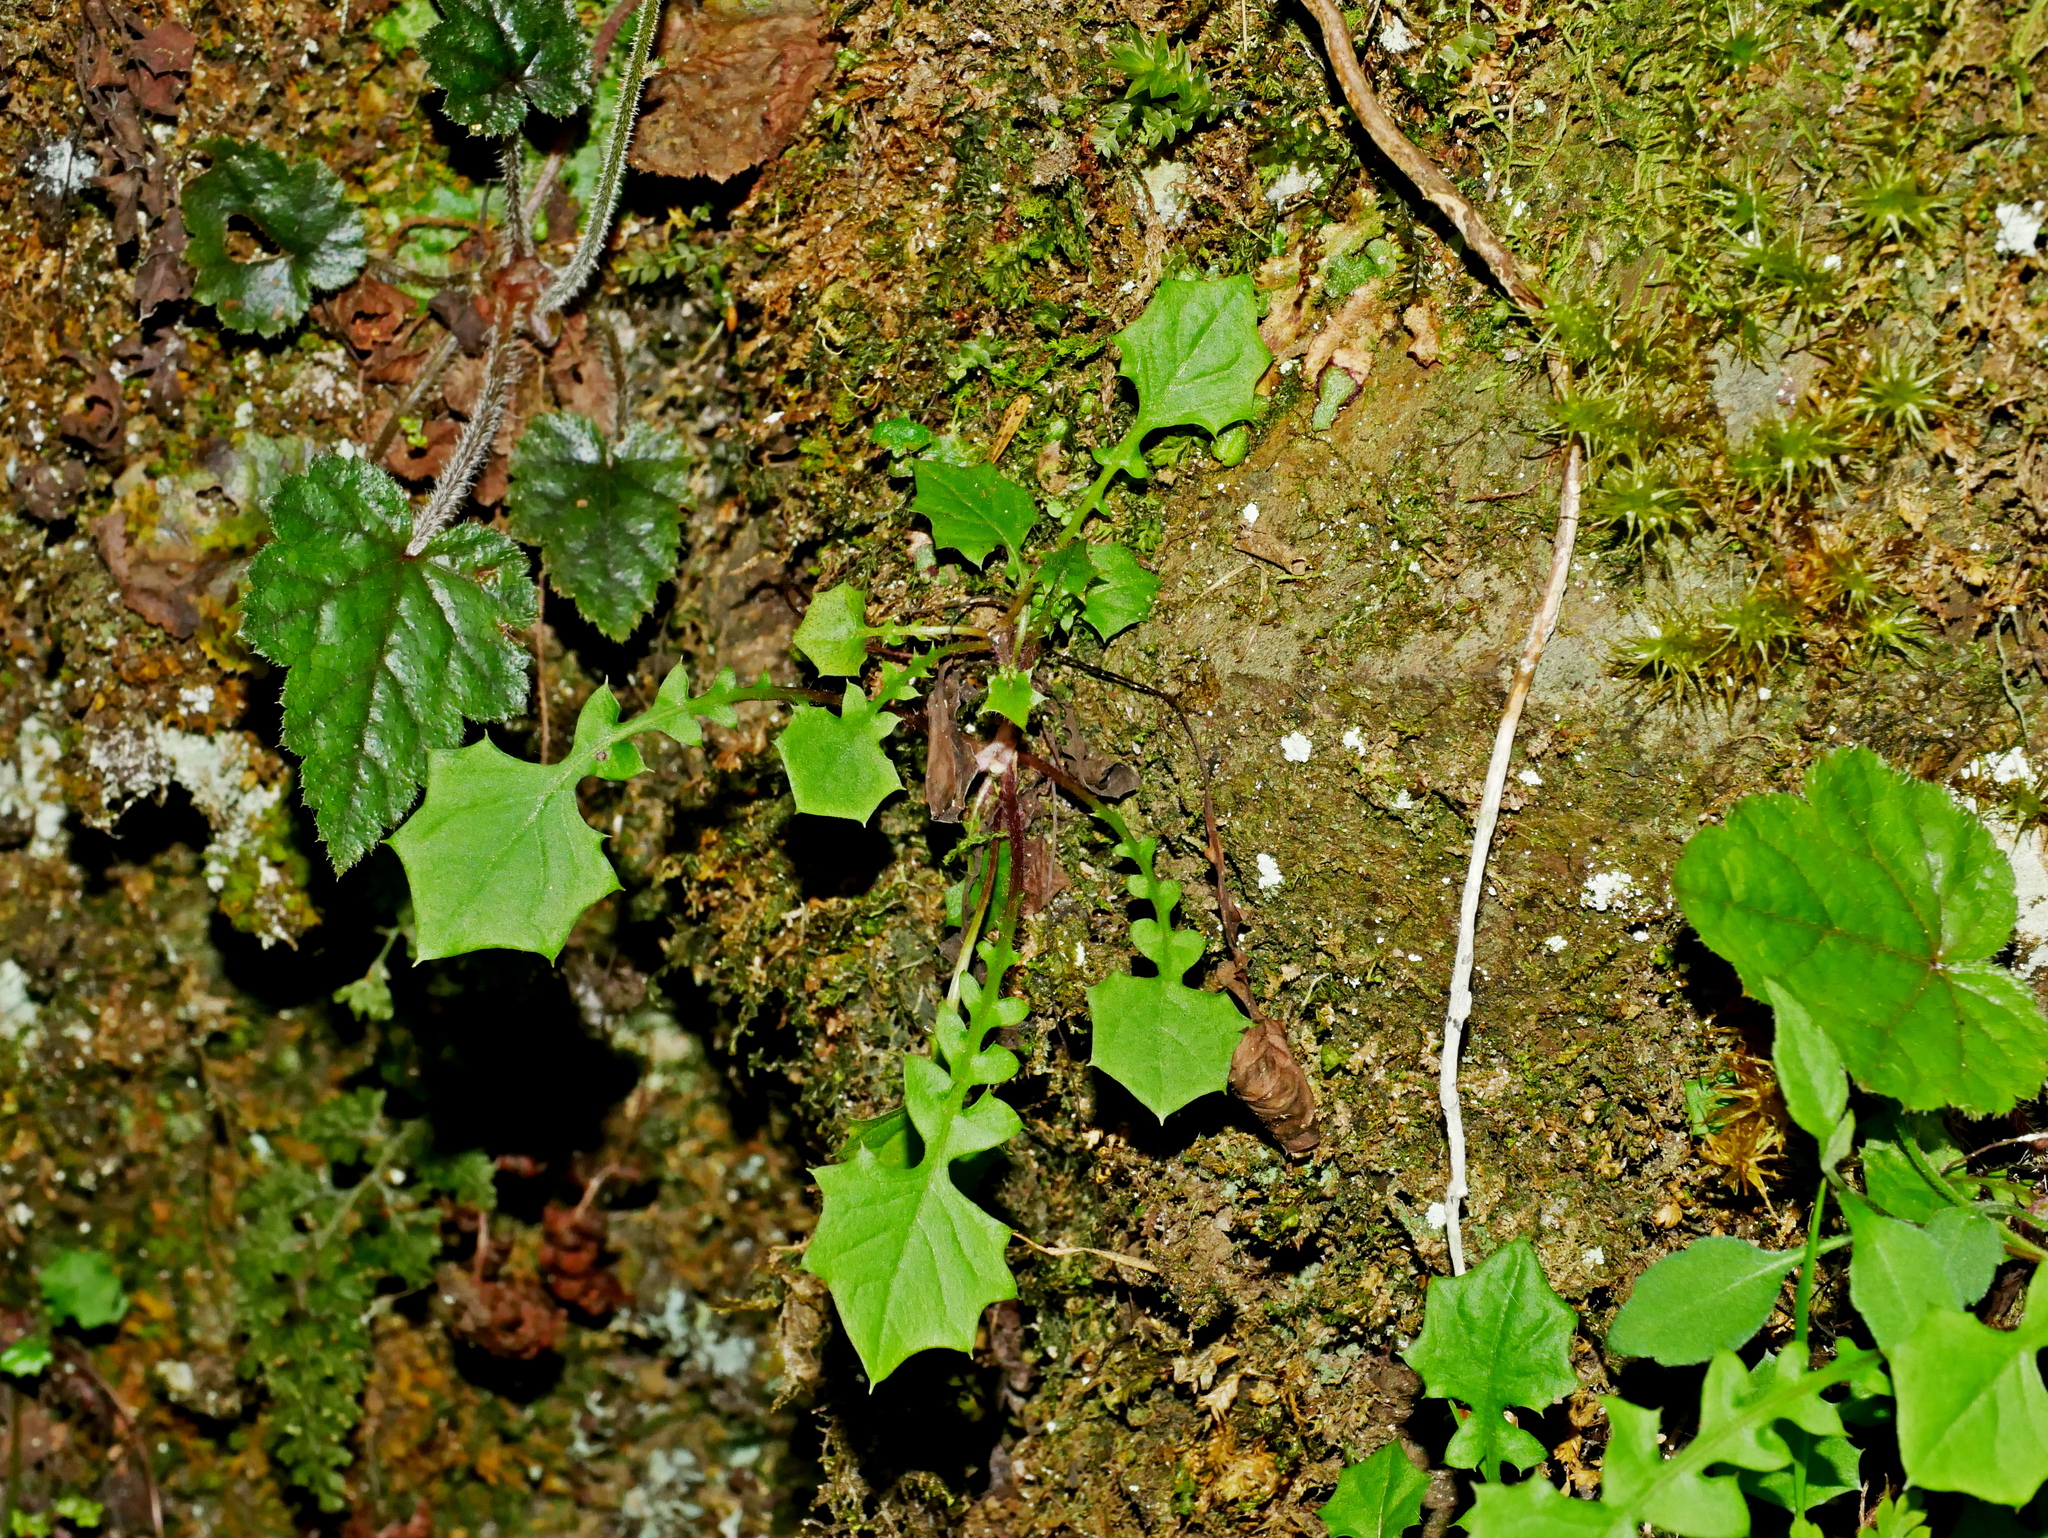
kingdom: Plantae
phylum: Tracheophyta
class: Magnoliopsida
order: Asterales
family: Asteraceae
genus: Youngia
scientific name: Youngia japonica
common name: Oriental false hawksbeard
